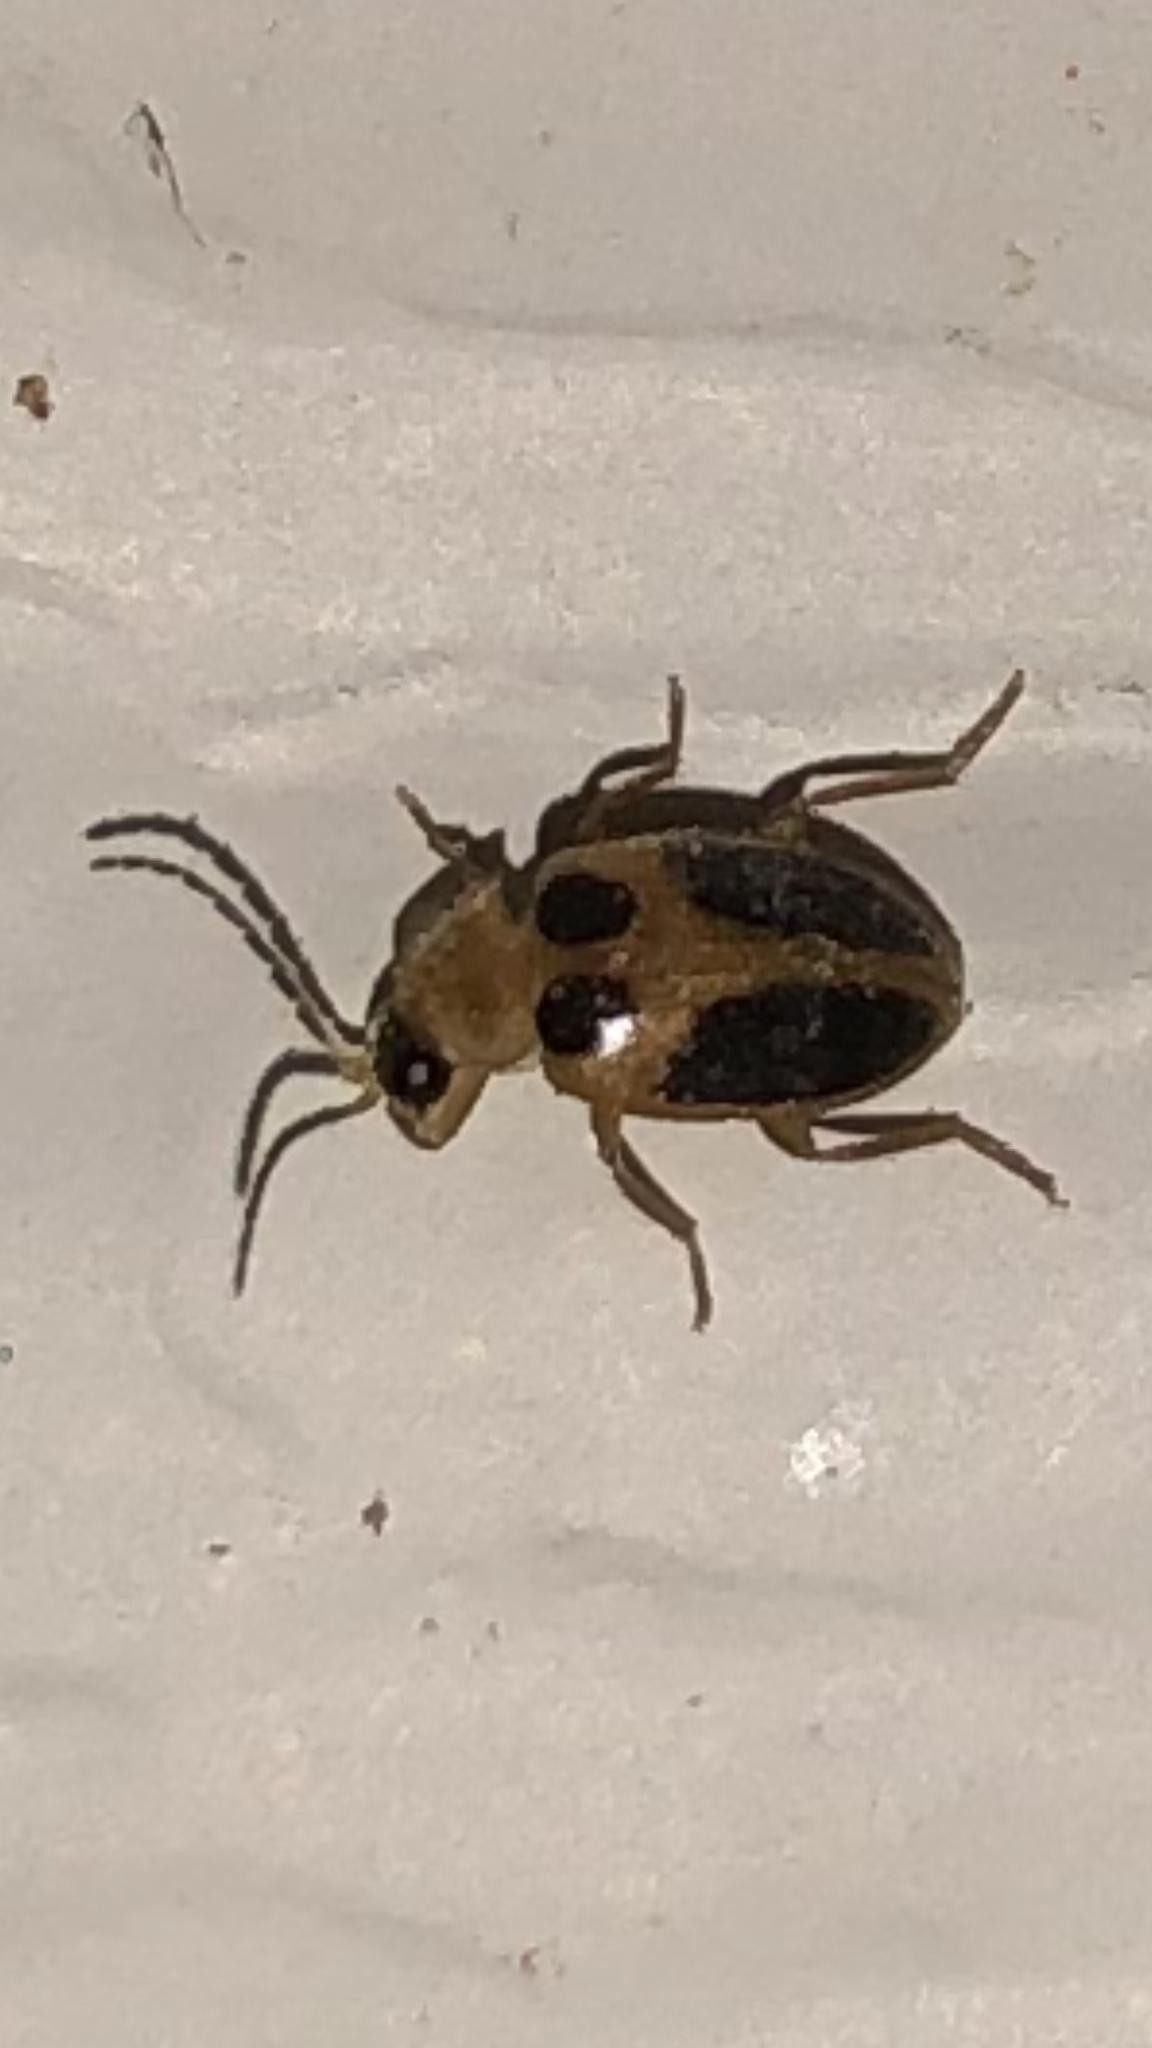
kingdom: Animalia
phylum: Arthropoda
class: Insecta
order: Coleoptera
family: Scirtidae
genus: Sacodes
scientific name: Sacodes pulchella
